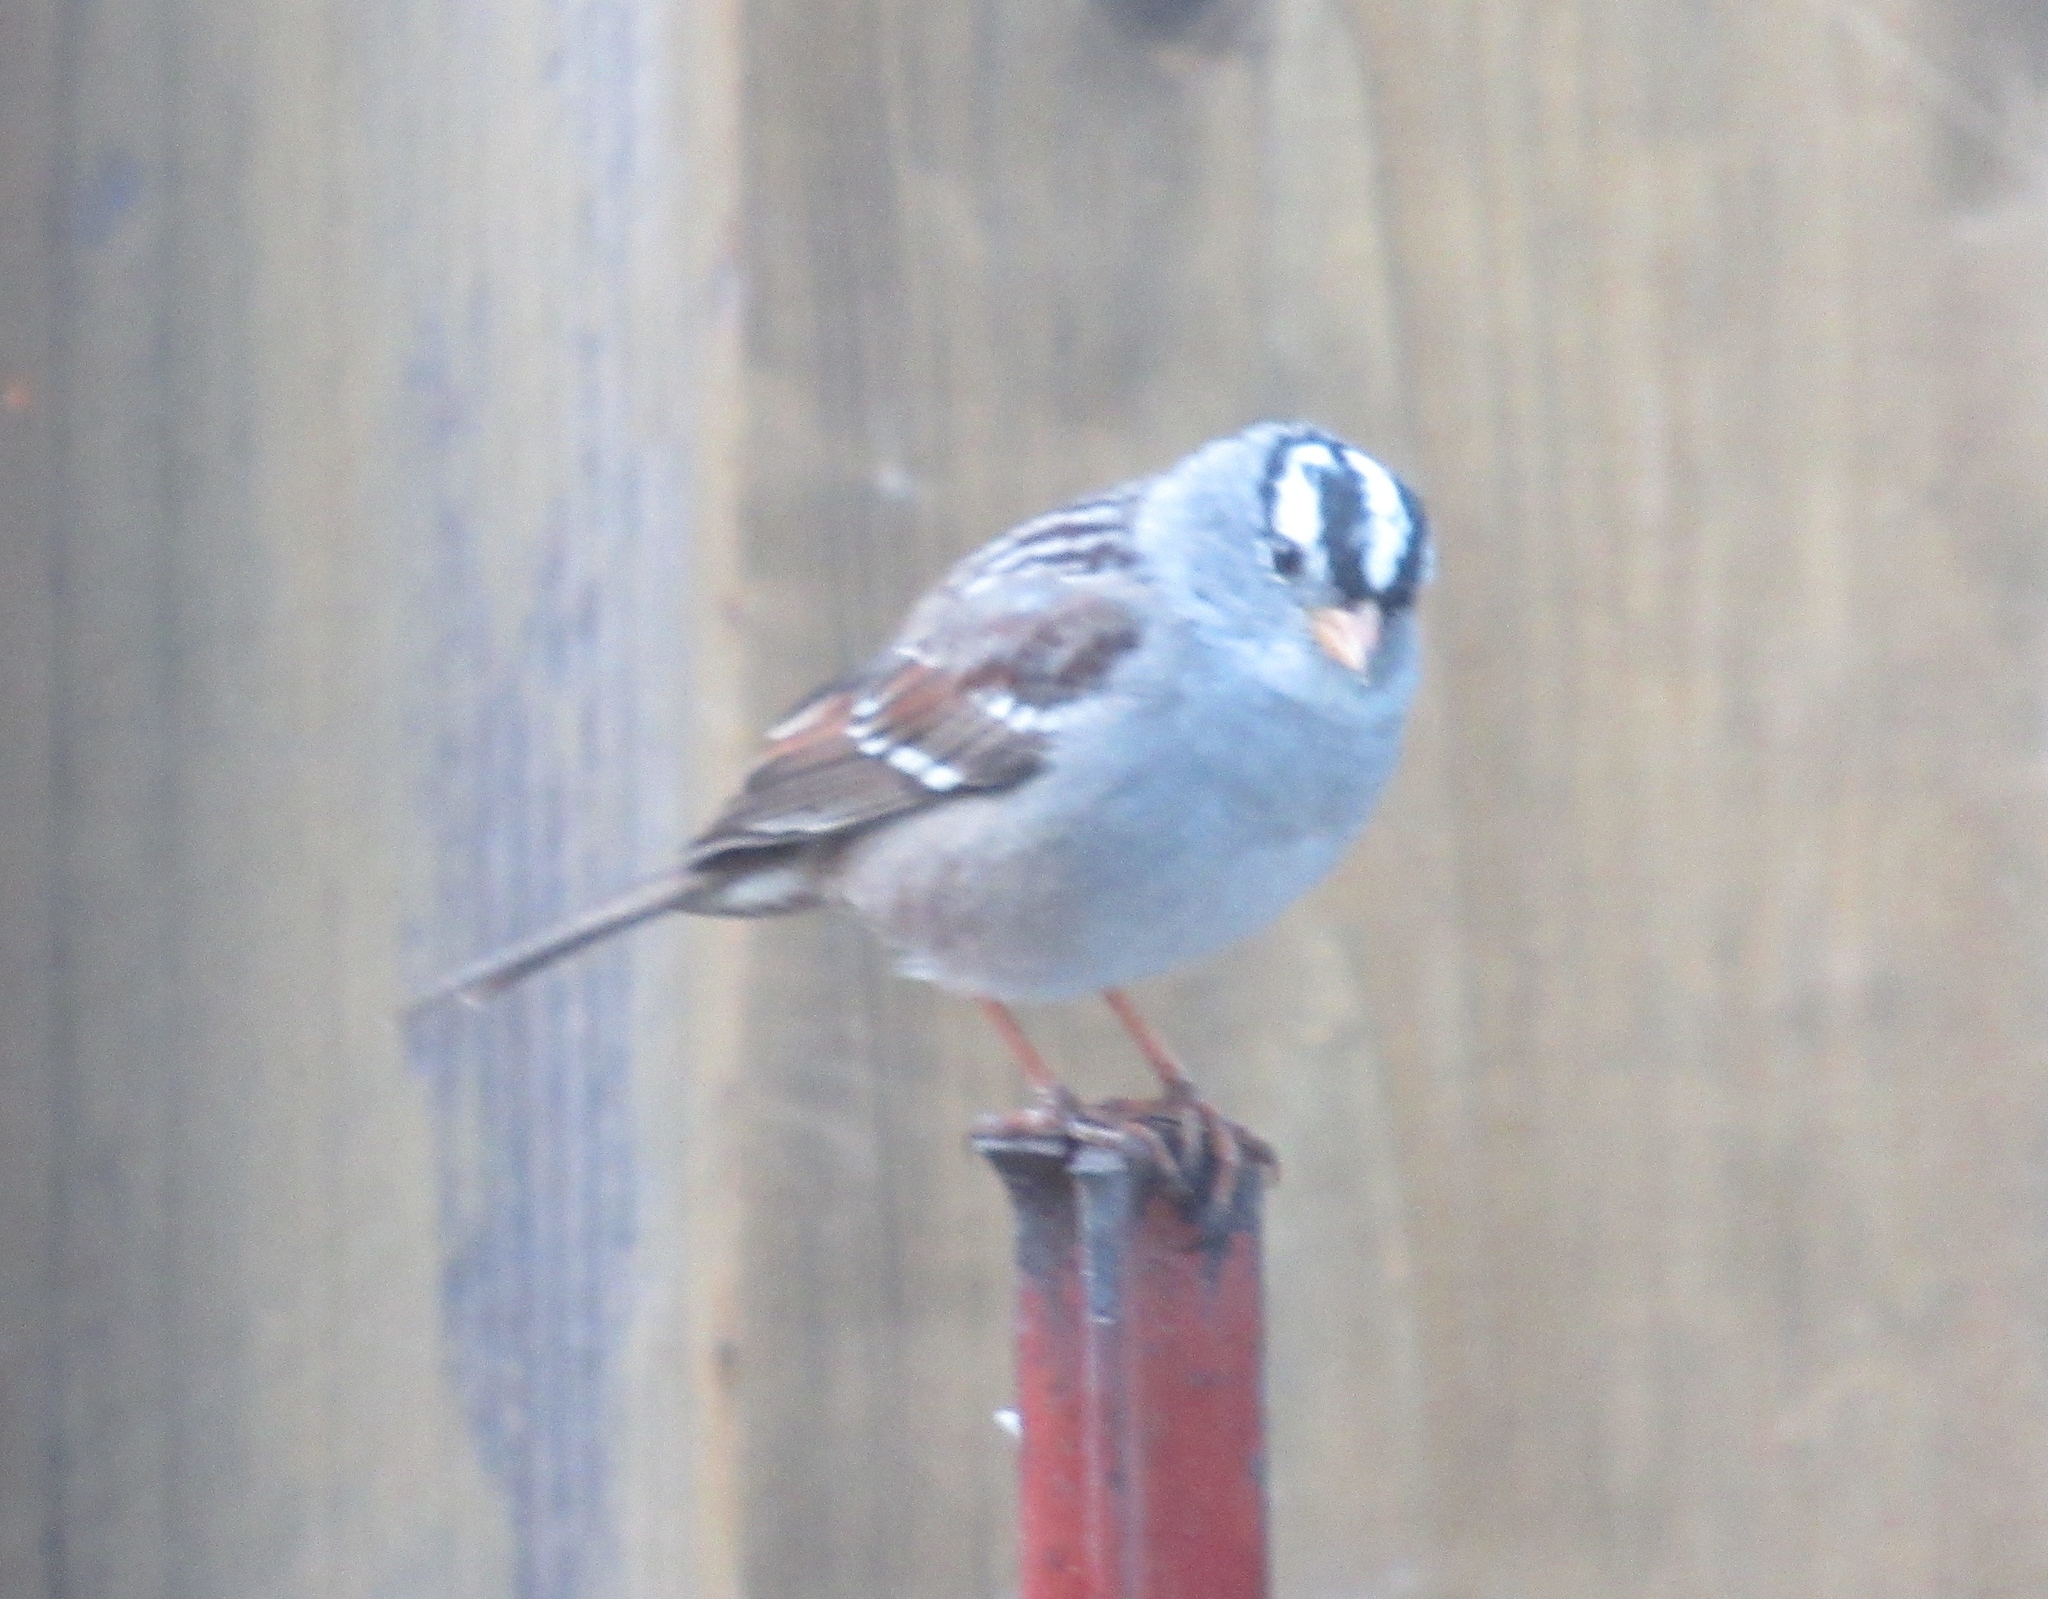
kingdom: Animalia
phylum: Chordata
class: Aves
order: Passeriformes
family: Passerellidae
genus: Zonotrichia
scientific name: Zonotrichia leucophrys
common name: White-crowned sparrow
